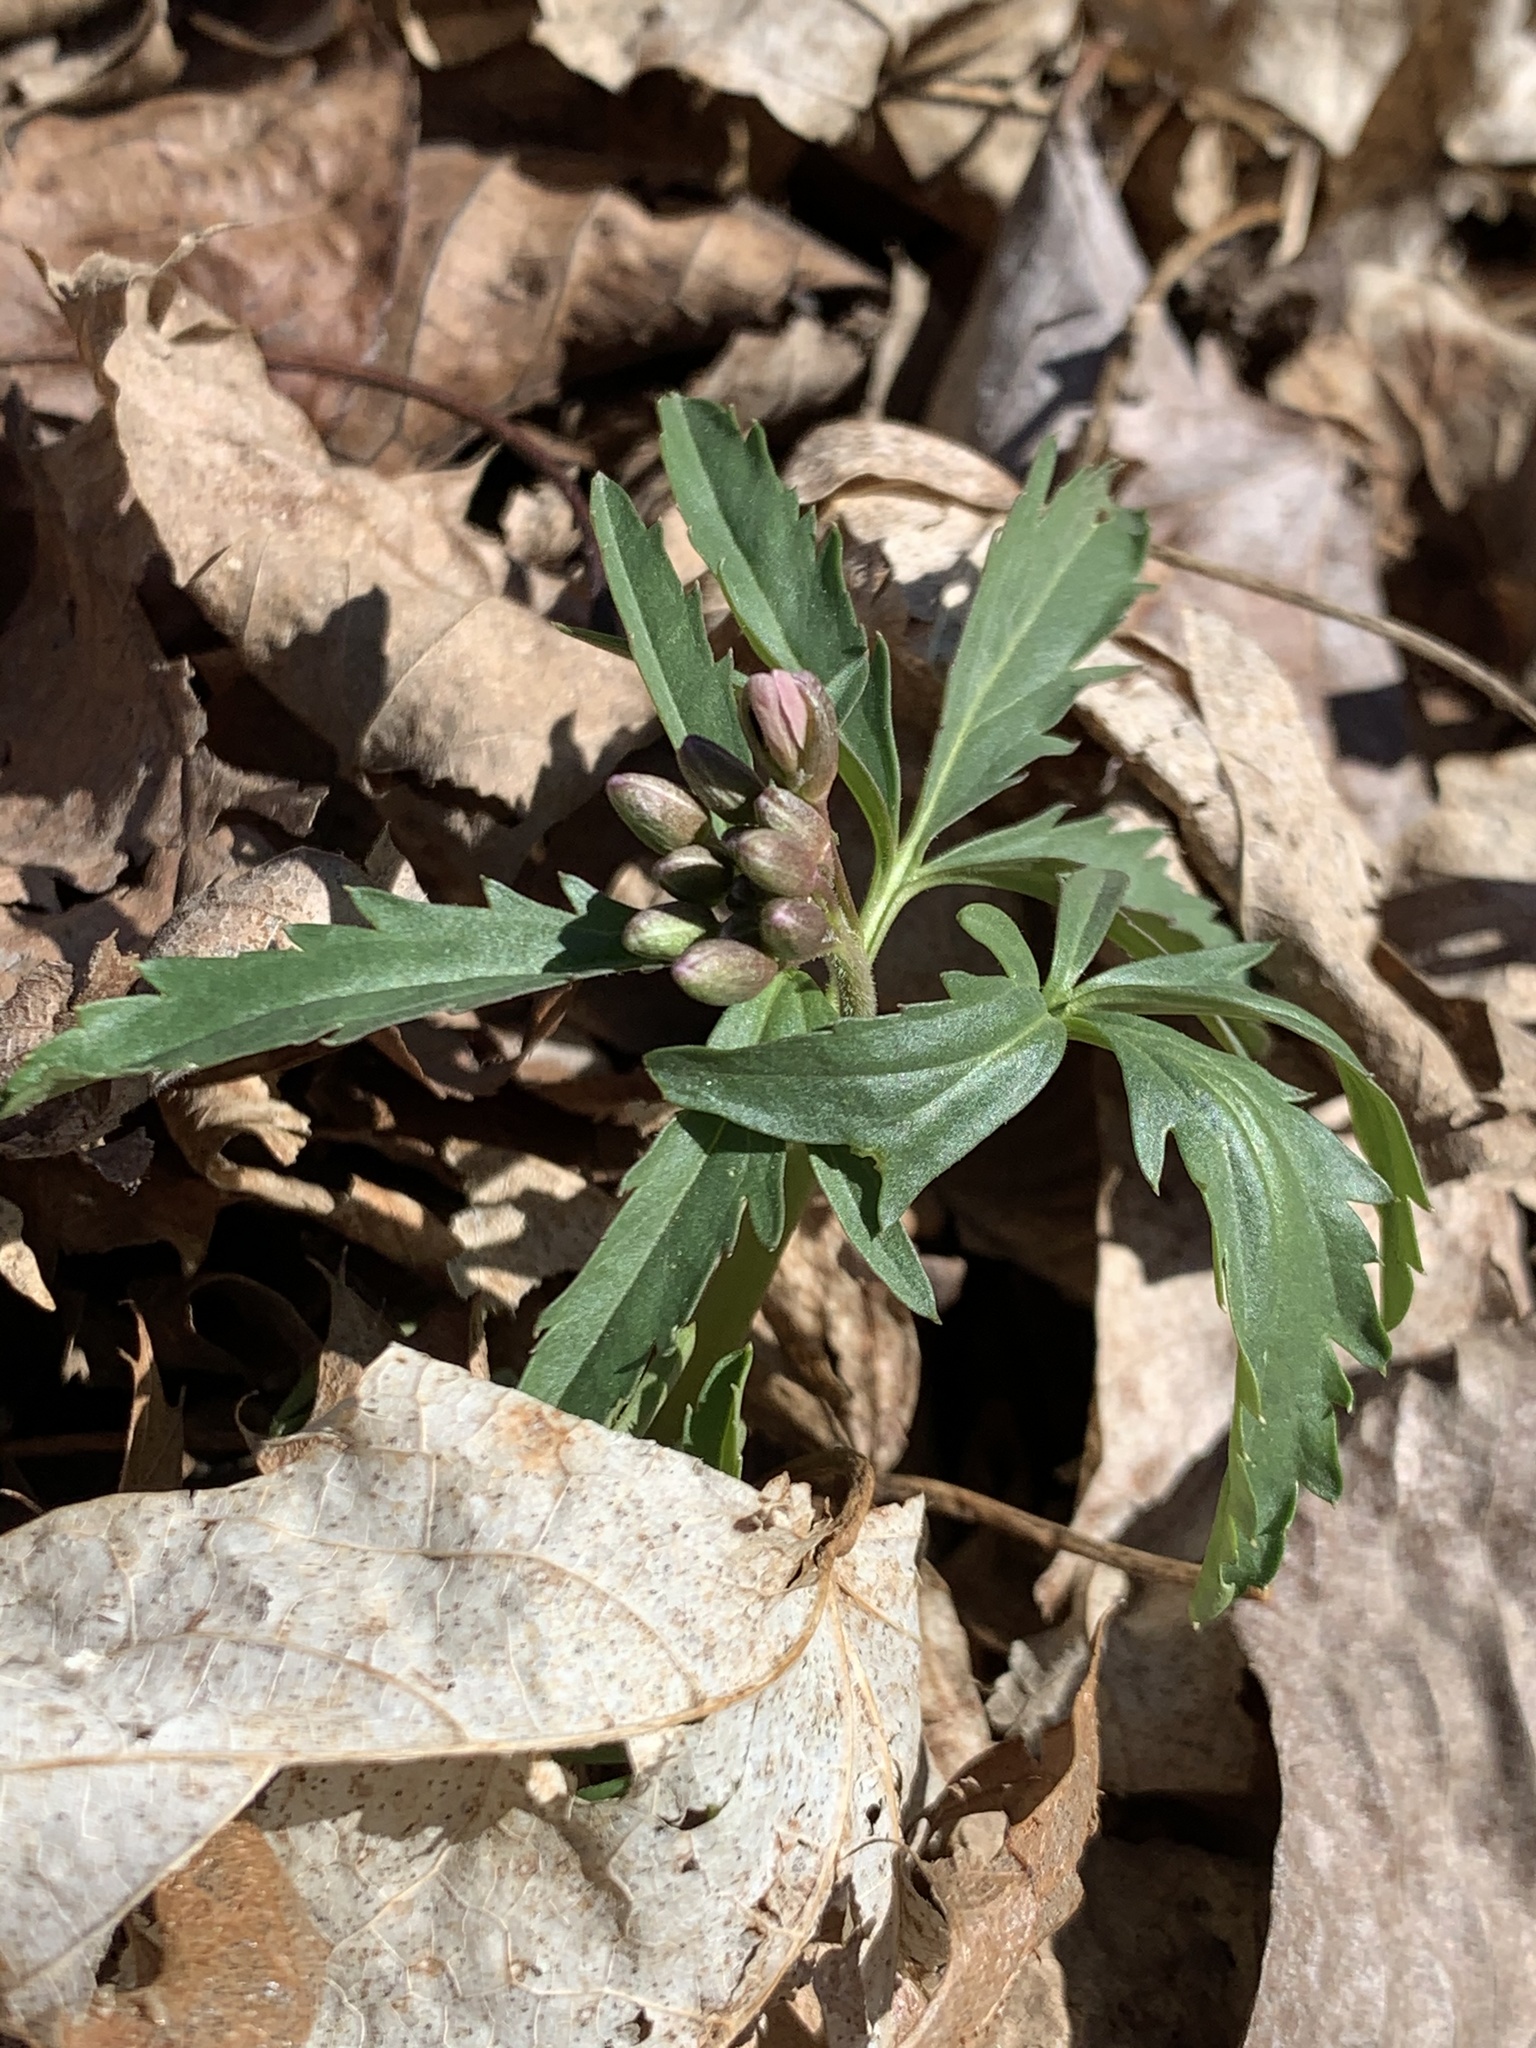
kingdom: Plantae
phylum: Tracheophyta
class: Magnoliopsida
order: Brassicales
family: Brassicaceae
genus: Cardamine
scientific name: Cardamine concatenata
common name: Cut-leaf toothcup
